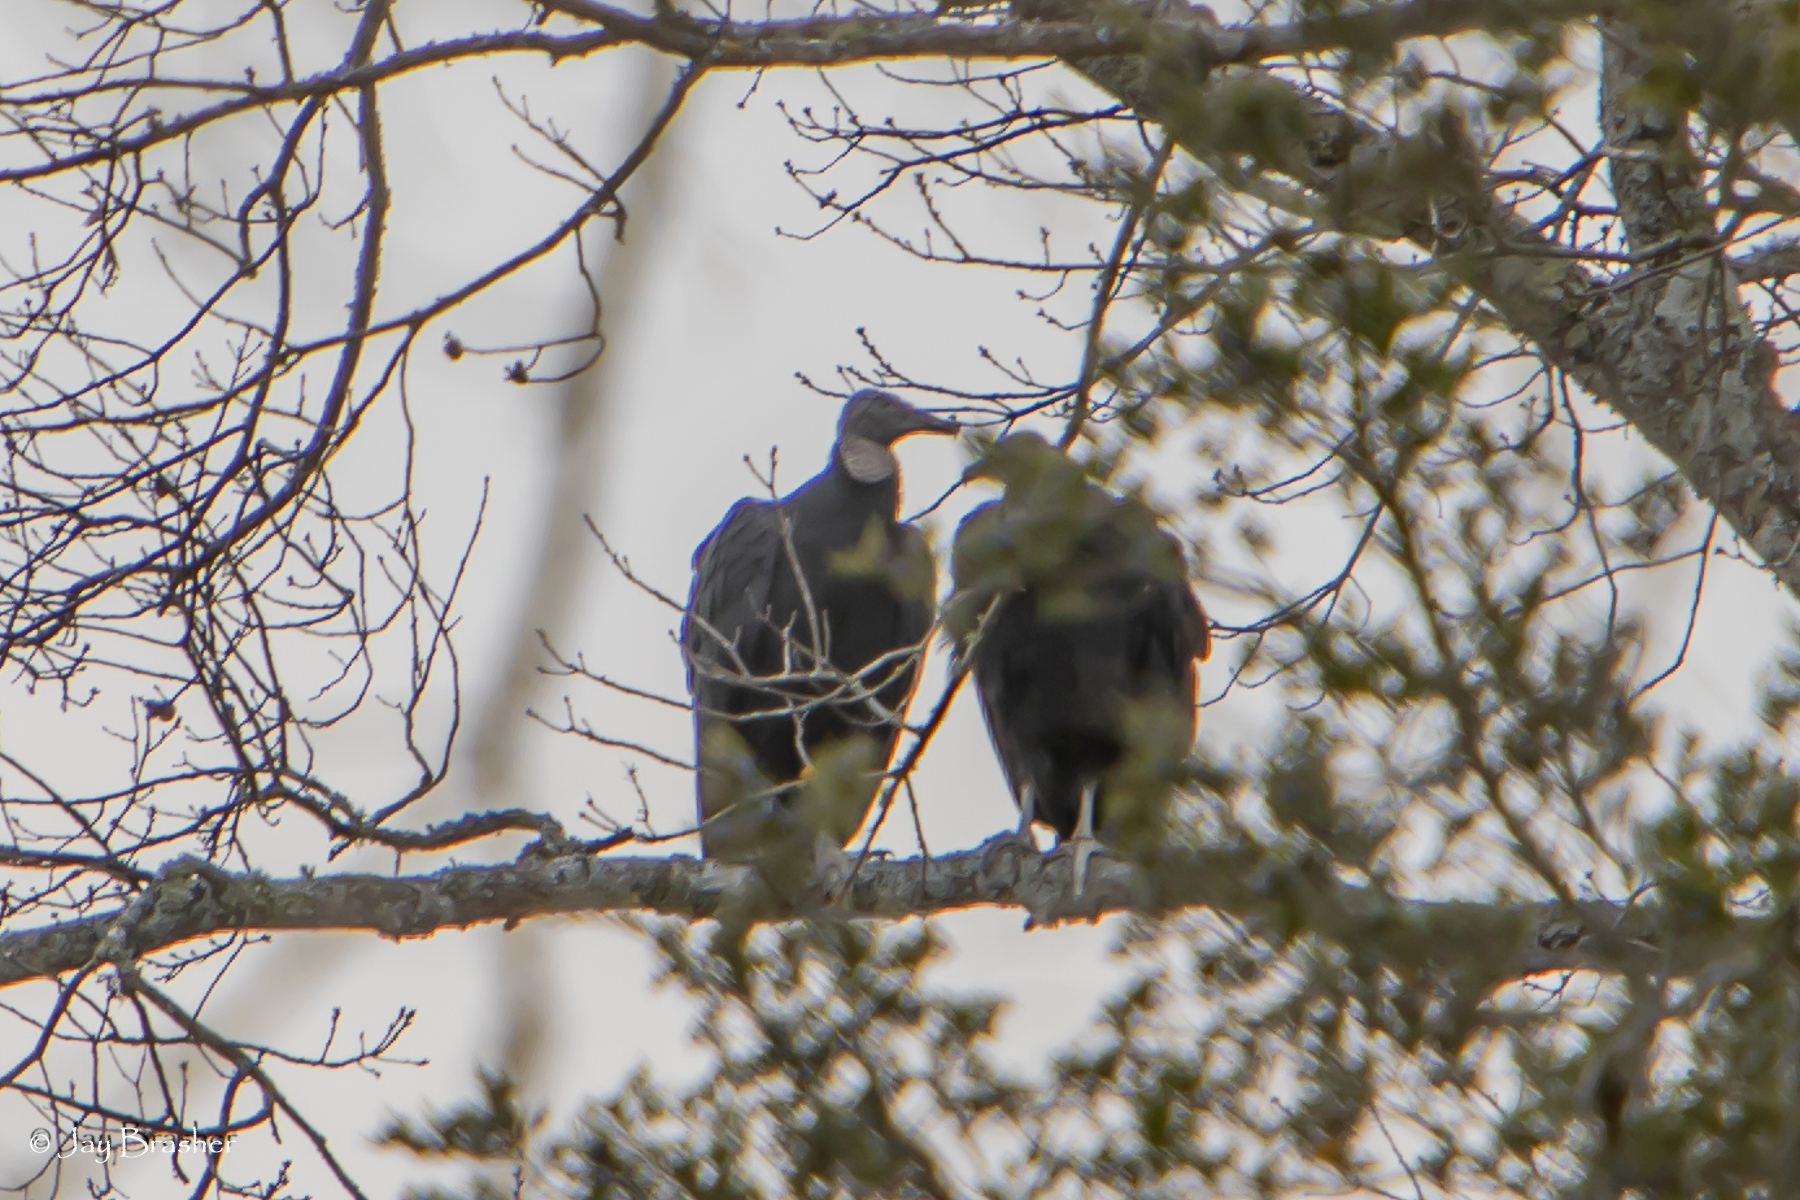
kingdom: Animalia
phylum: Chordata
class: Aves
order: Accipitriformes
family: Cathartidae
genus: Coragyps
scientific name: Coragyps atratus
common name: Black vulture
